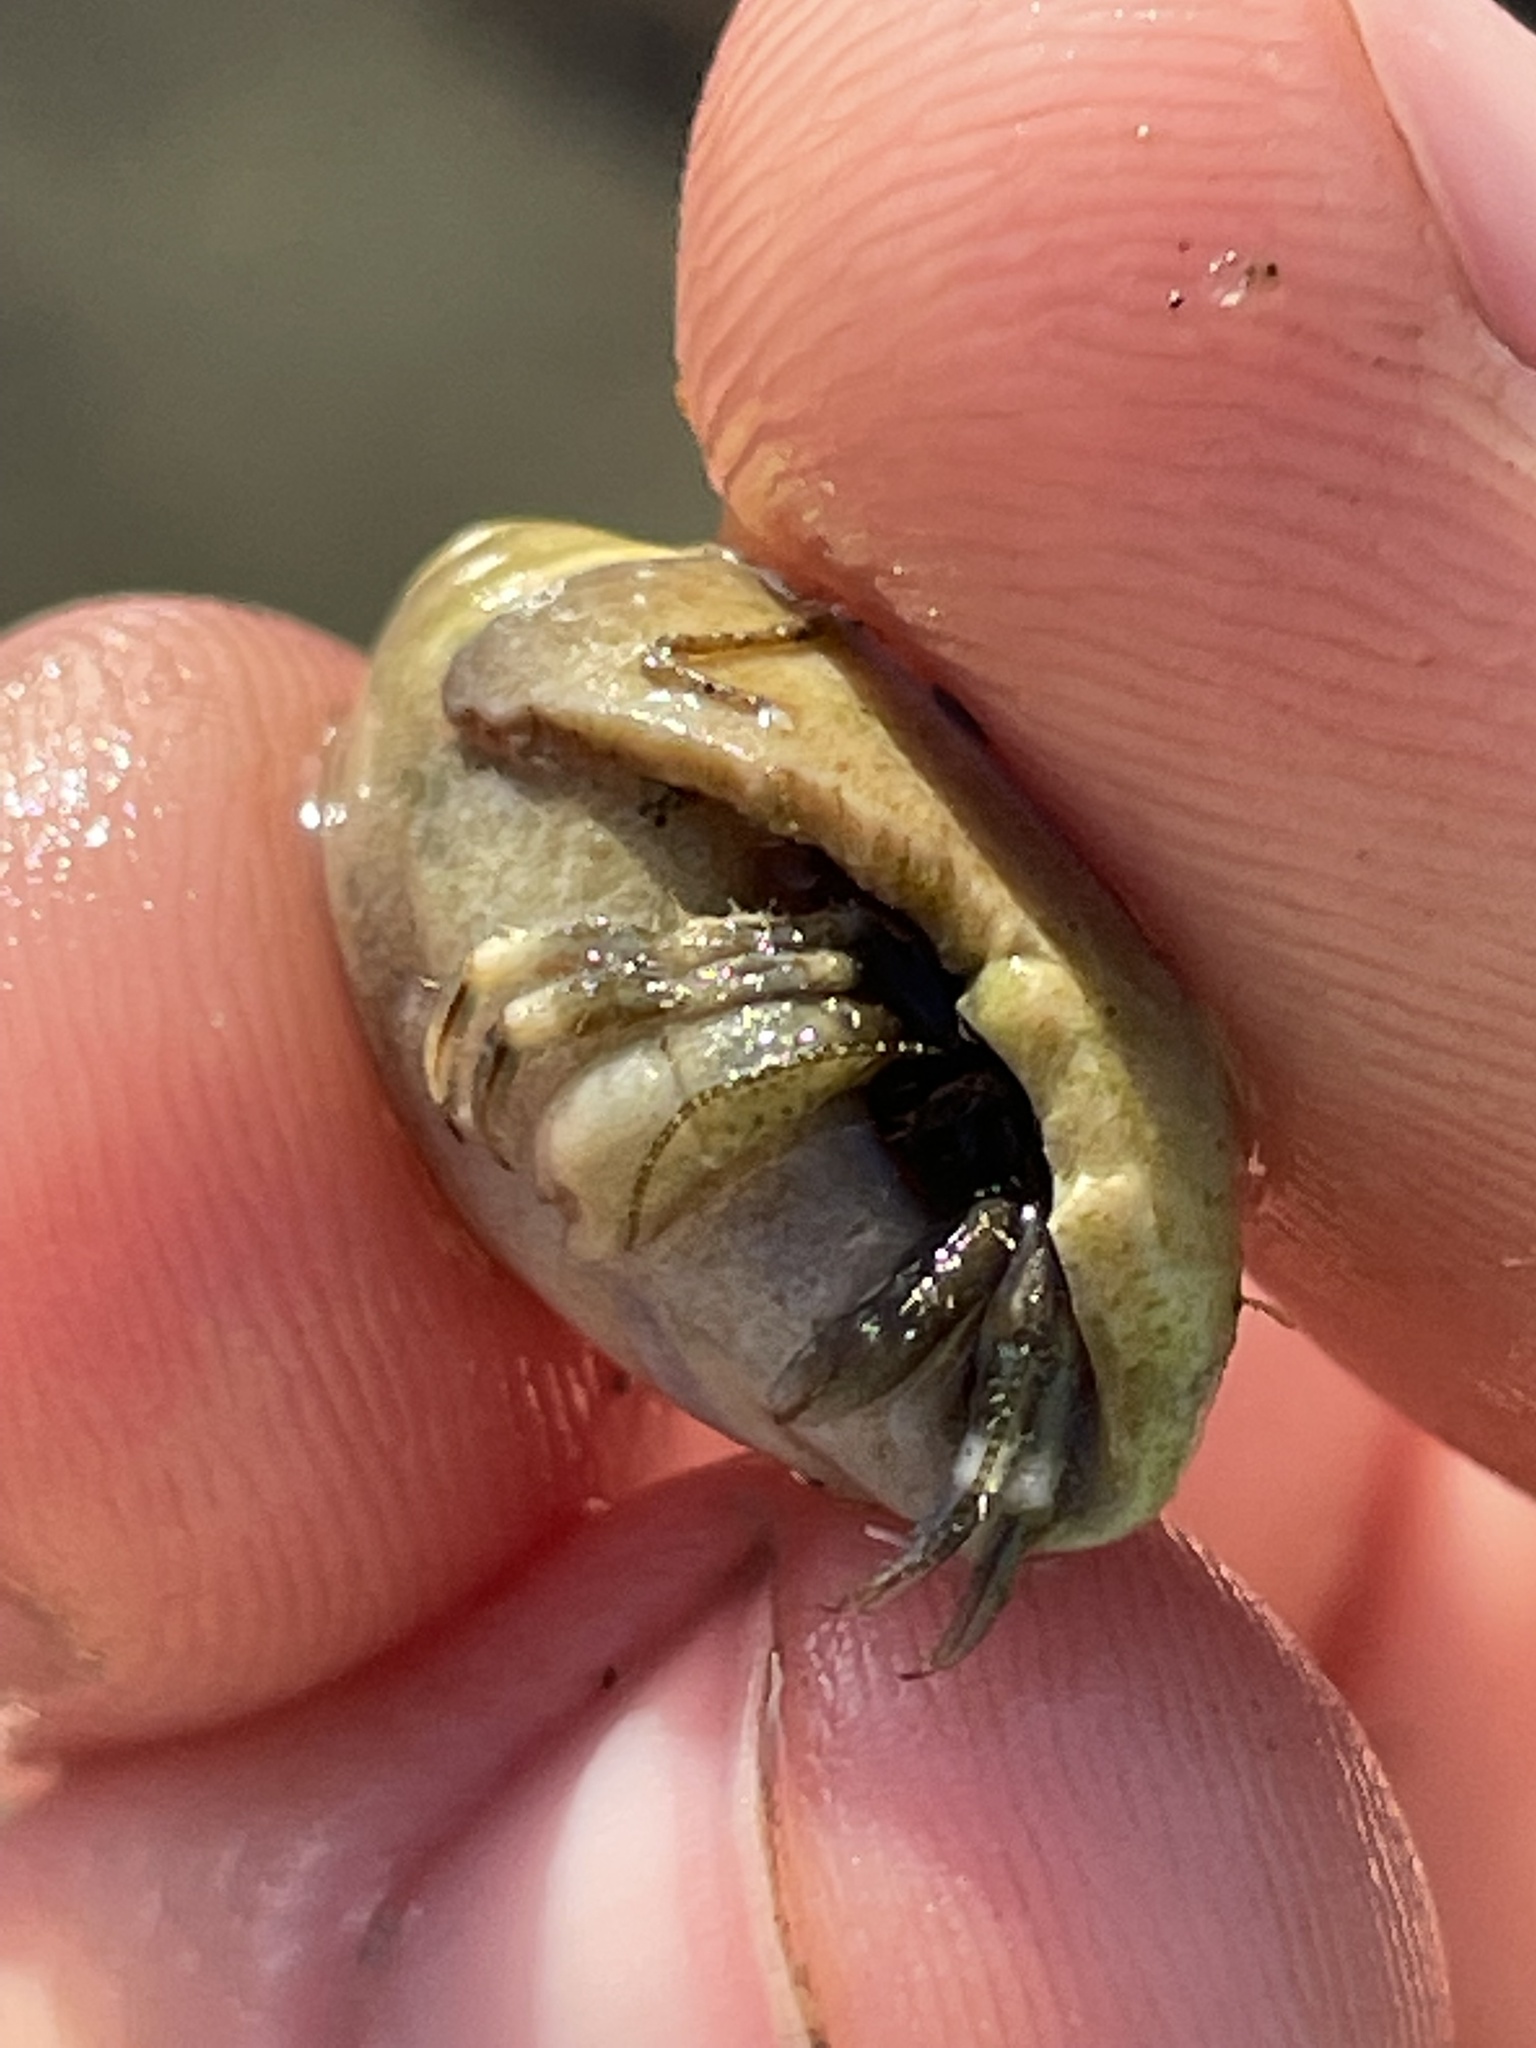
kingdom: Animalia
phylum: Arthropoda
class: Malacostraca
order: Decapoda
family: Paguridae
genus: Pagurus
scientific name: Pagurus venturensis
